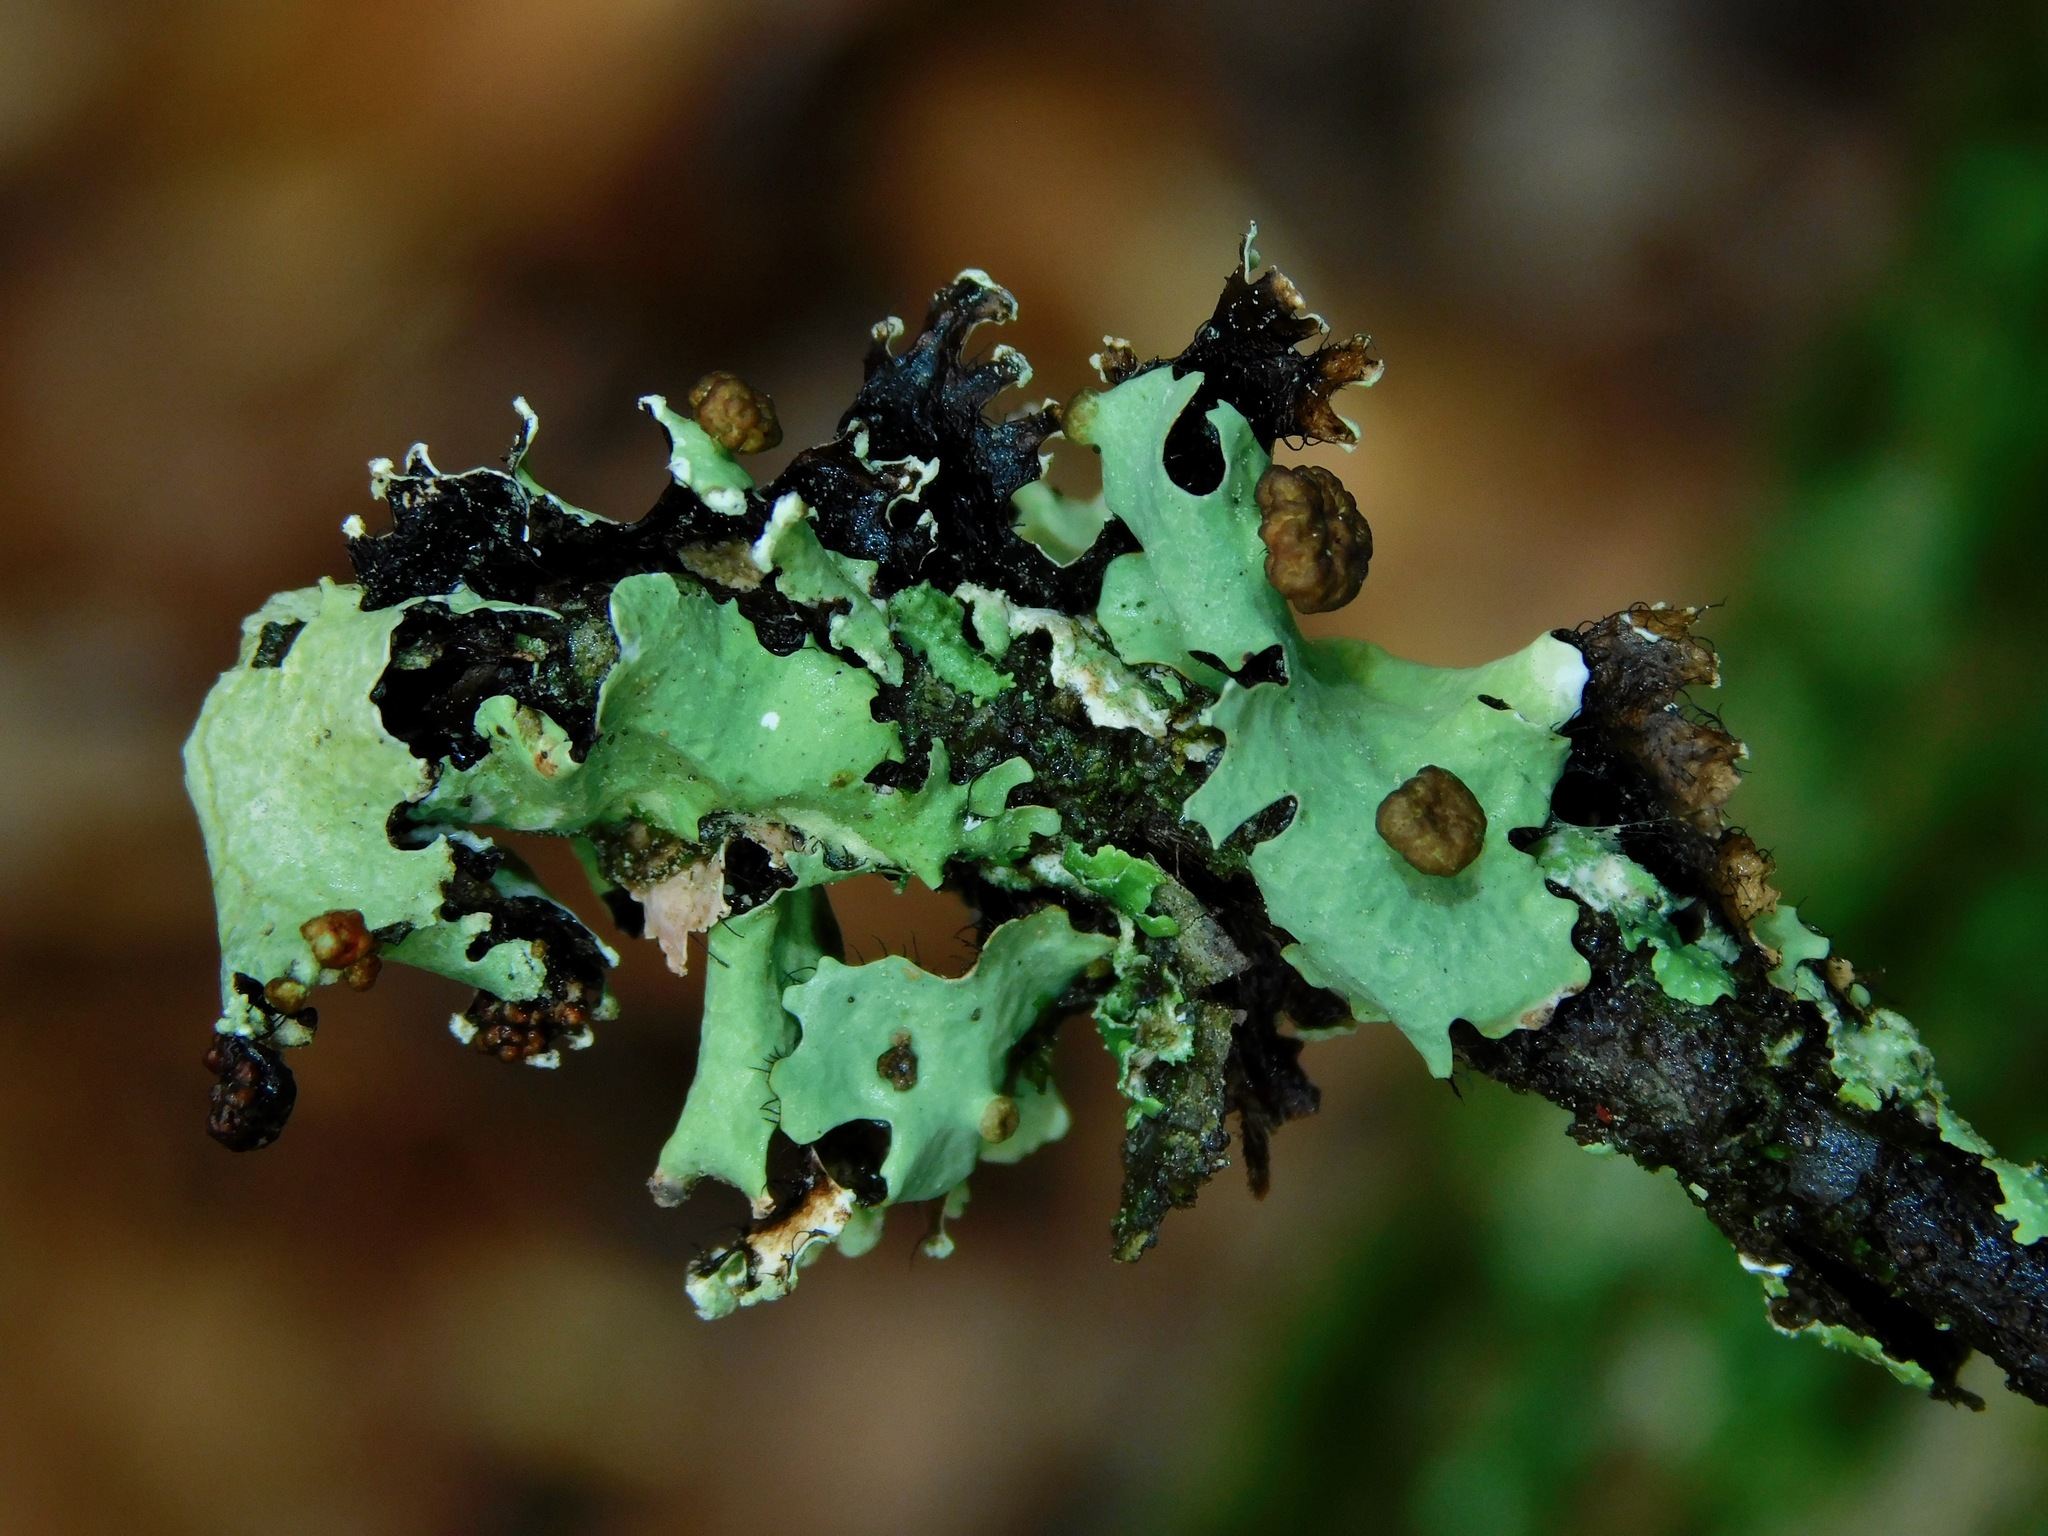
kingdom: Fungi
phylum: Basidiomycota
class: Tremellomycetes
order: Tremellales
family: Tremellaceae
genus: Tremella
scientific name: Tremella parmeliarum
